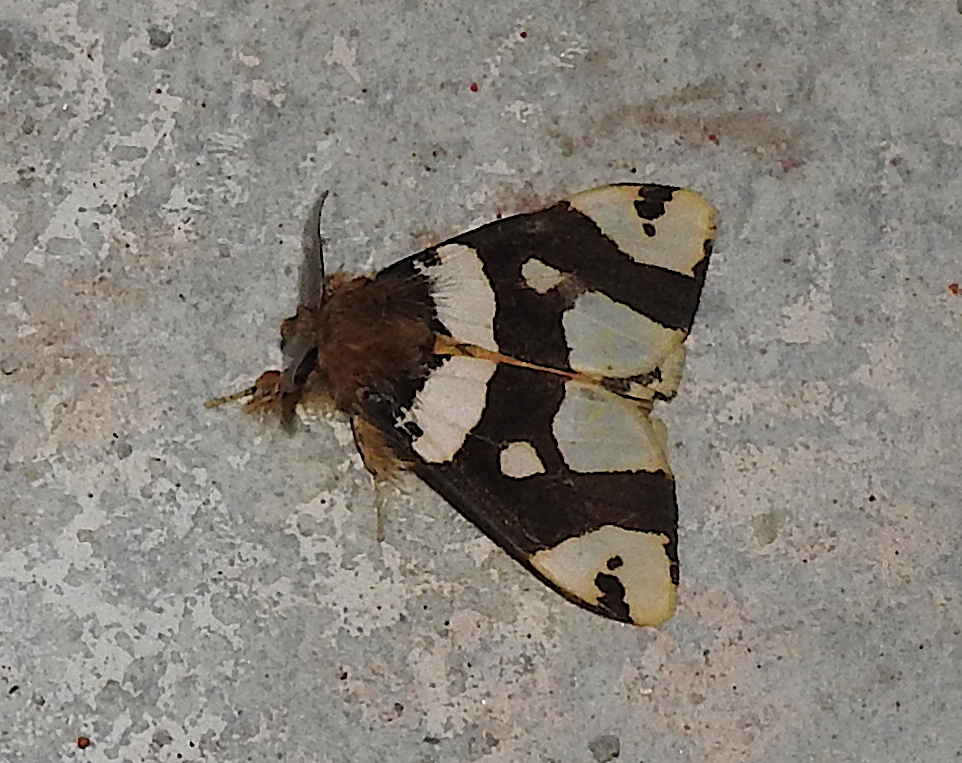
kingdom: Animalia
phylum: Arthropoda
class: Insecta
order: Lepidoptera
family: Erebidae
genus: Pida
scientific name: Pida
